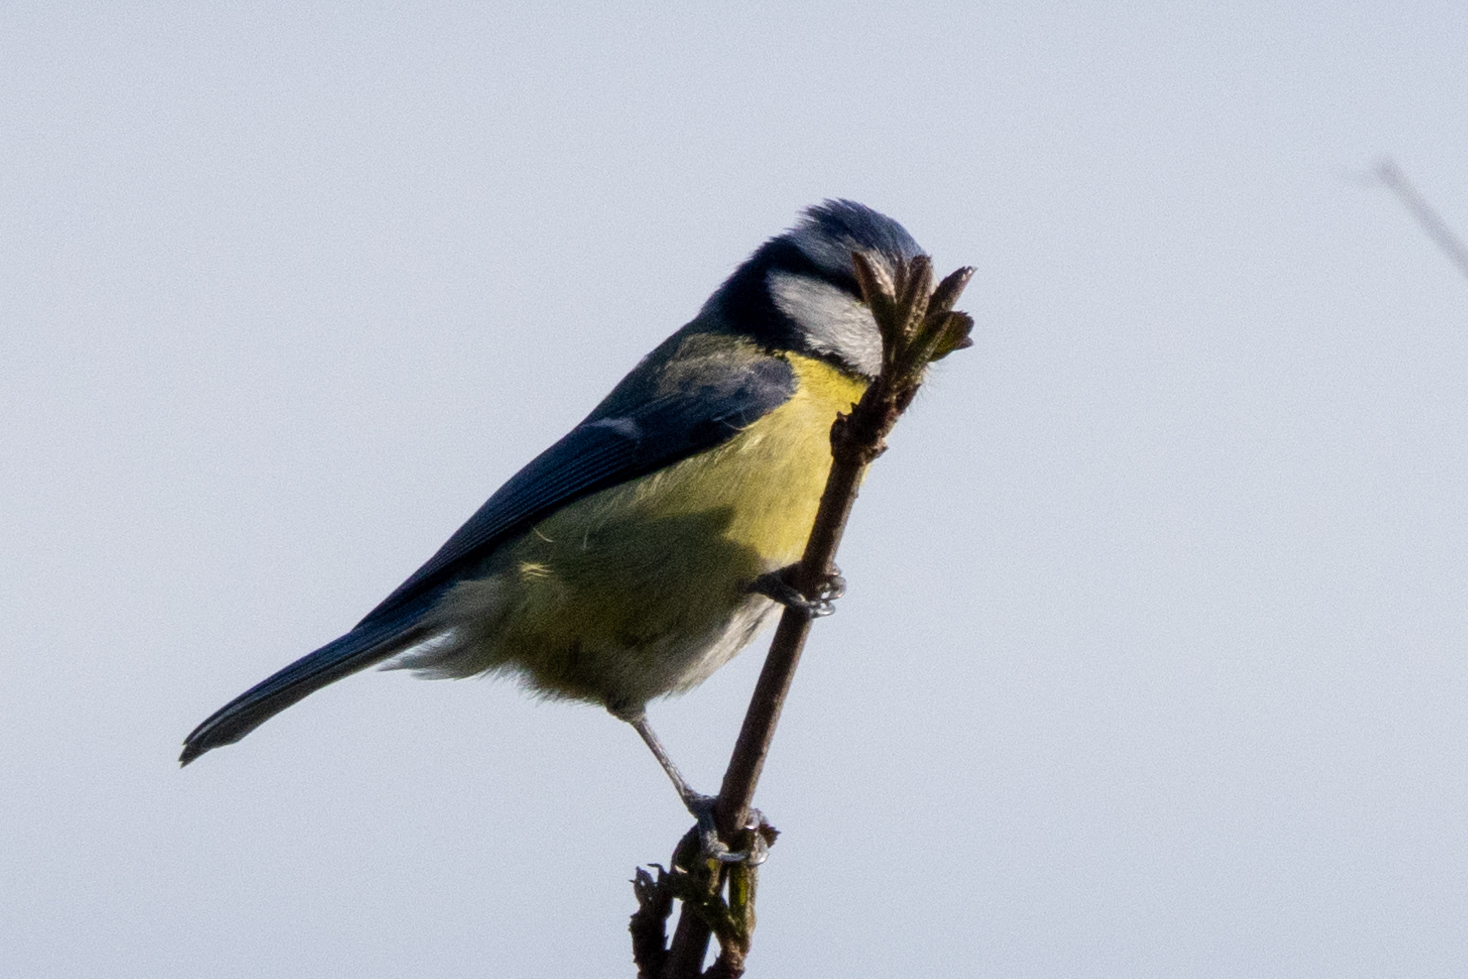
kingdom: Animalia
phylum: Chordata
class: Aves
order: Passeriformes
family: Paridae
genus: Cyanistes
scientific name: Cyanistes caeruleus
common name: Eurasian blue tit
